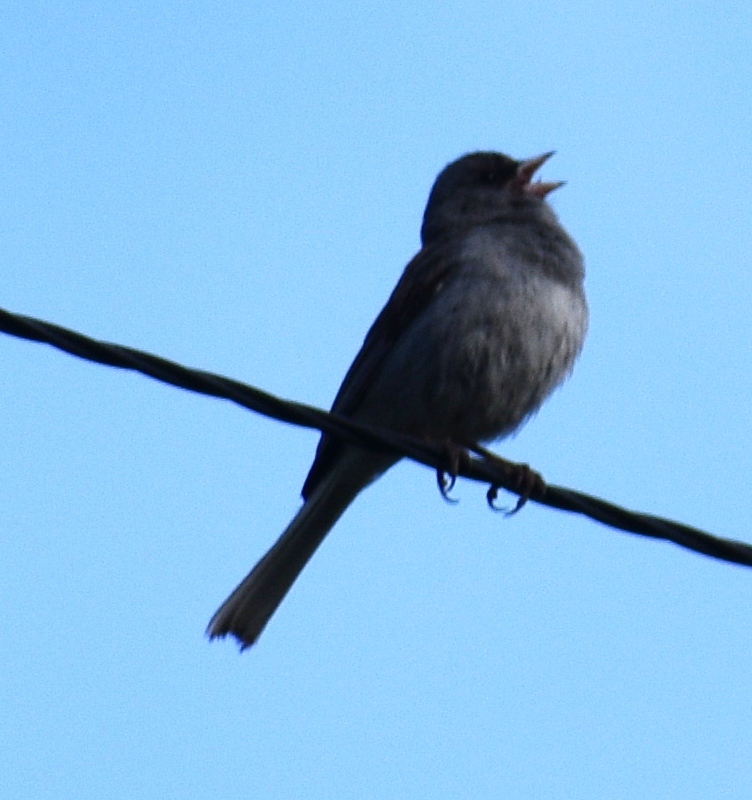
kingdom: Animalia
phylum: Chordata
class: Aves
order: Passeriformes
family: Passerellidae
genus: Junco
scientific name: Junco hyemalis
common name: Dark-eyed junco
